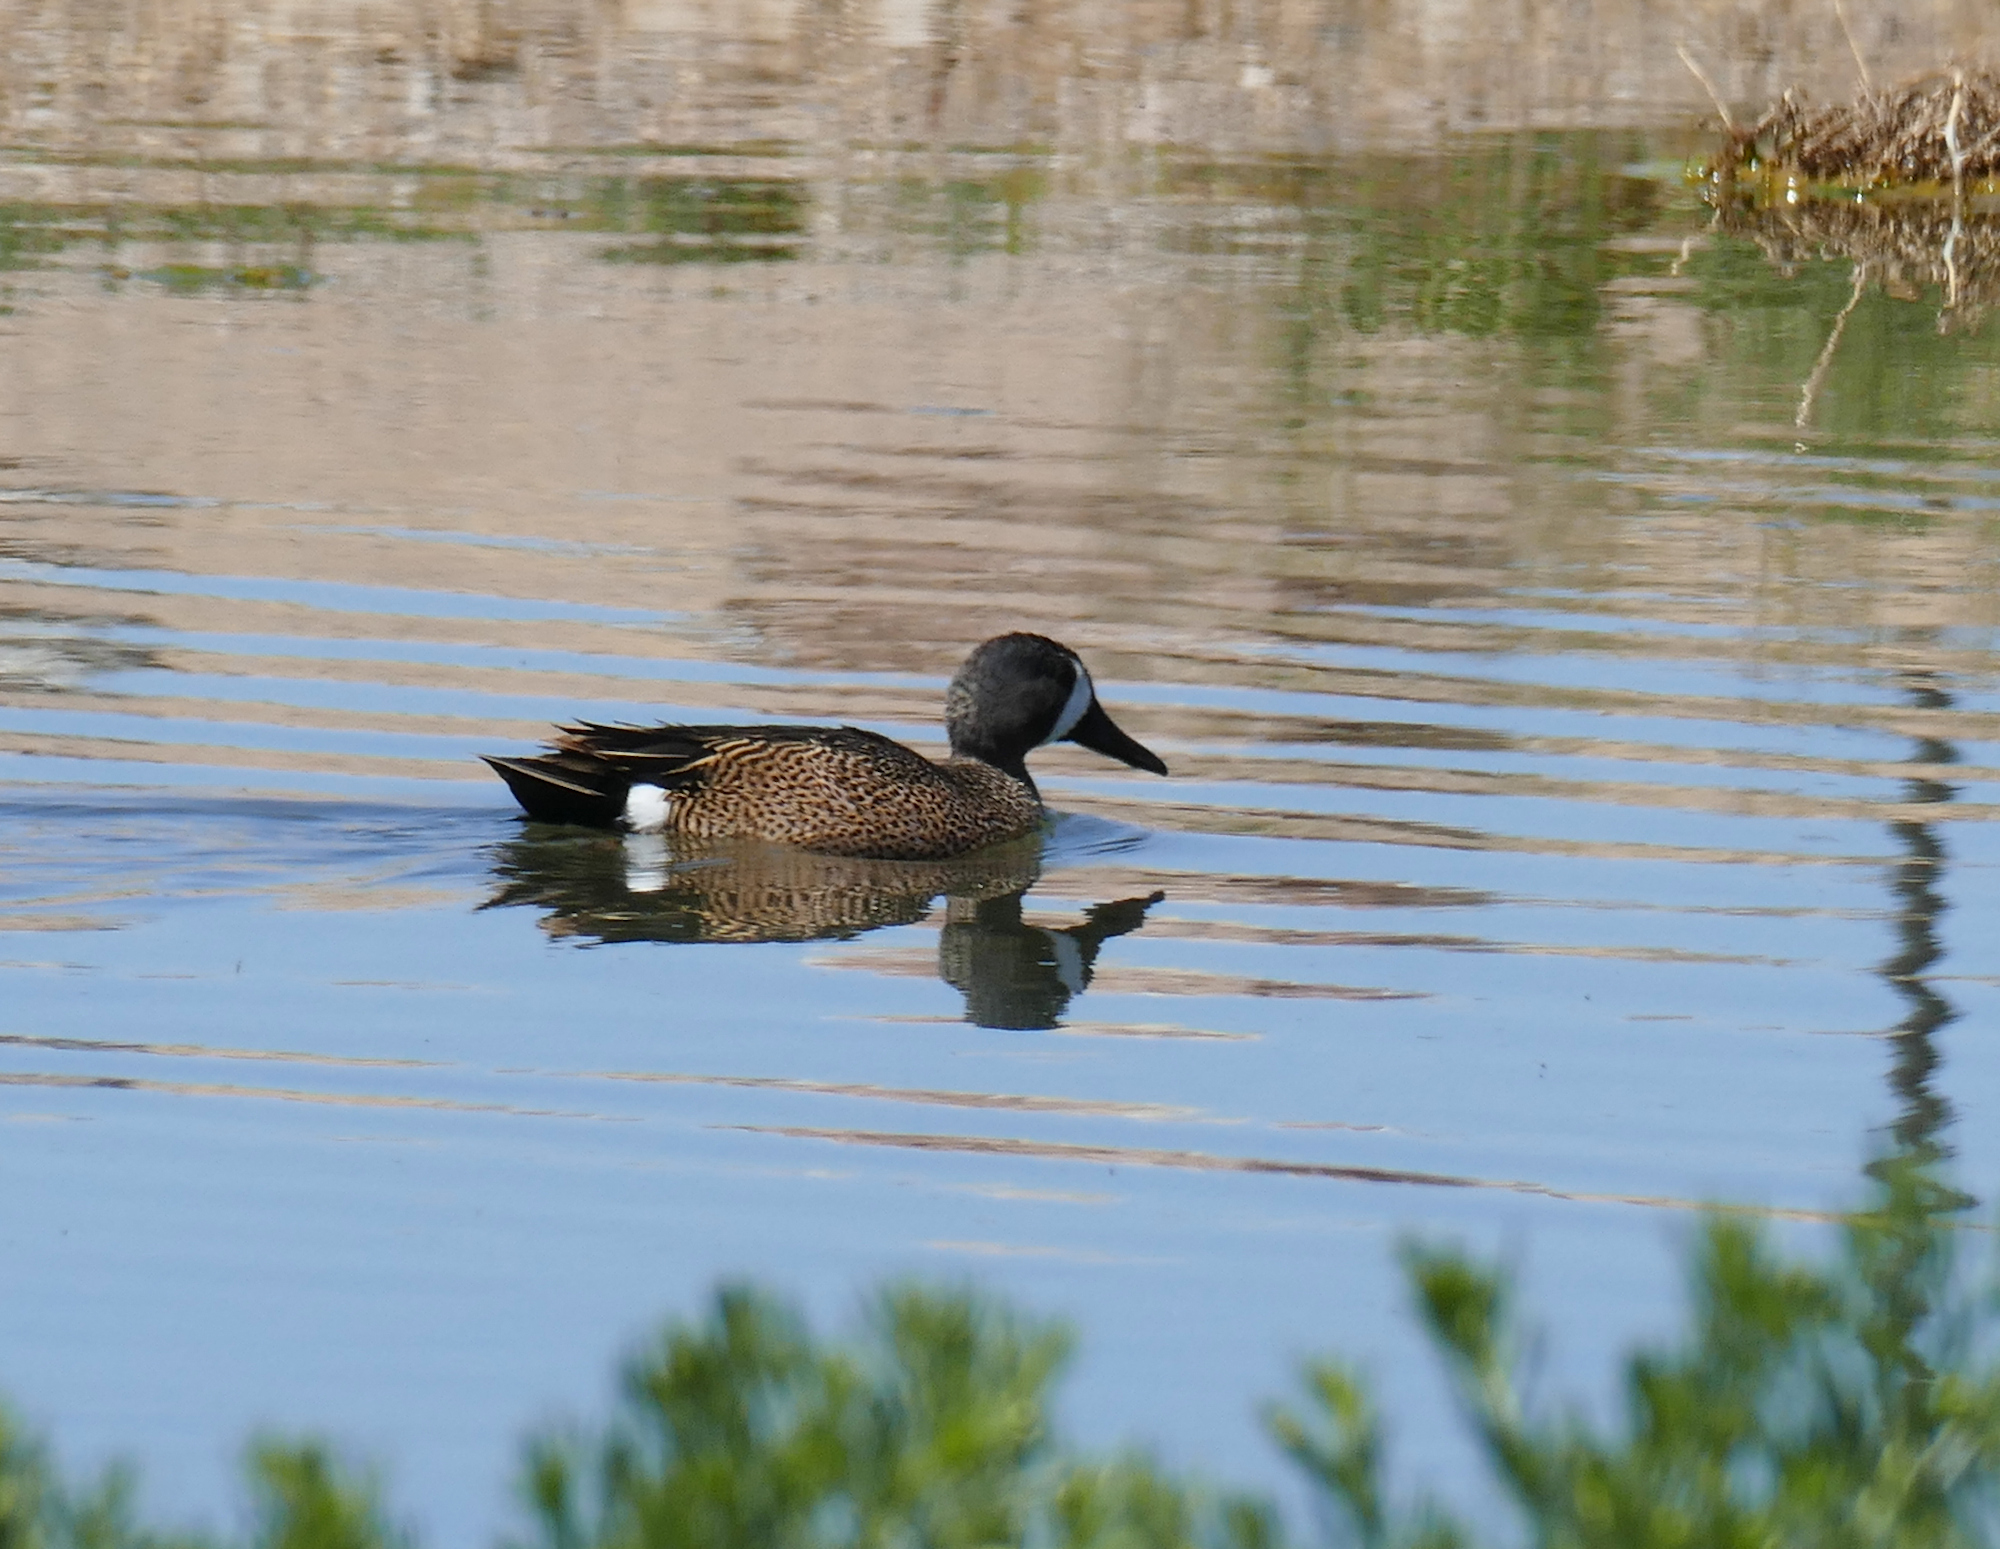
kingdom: Animalia
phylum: Chordata
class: Aves
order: Anseriformes
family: Anatidae
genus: Spatula
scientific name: Spatula discors
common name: Blue-winged teal
